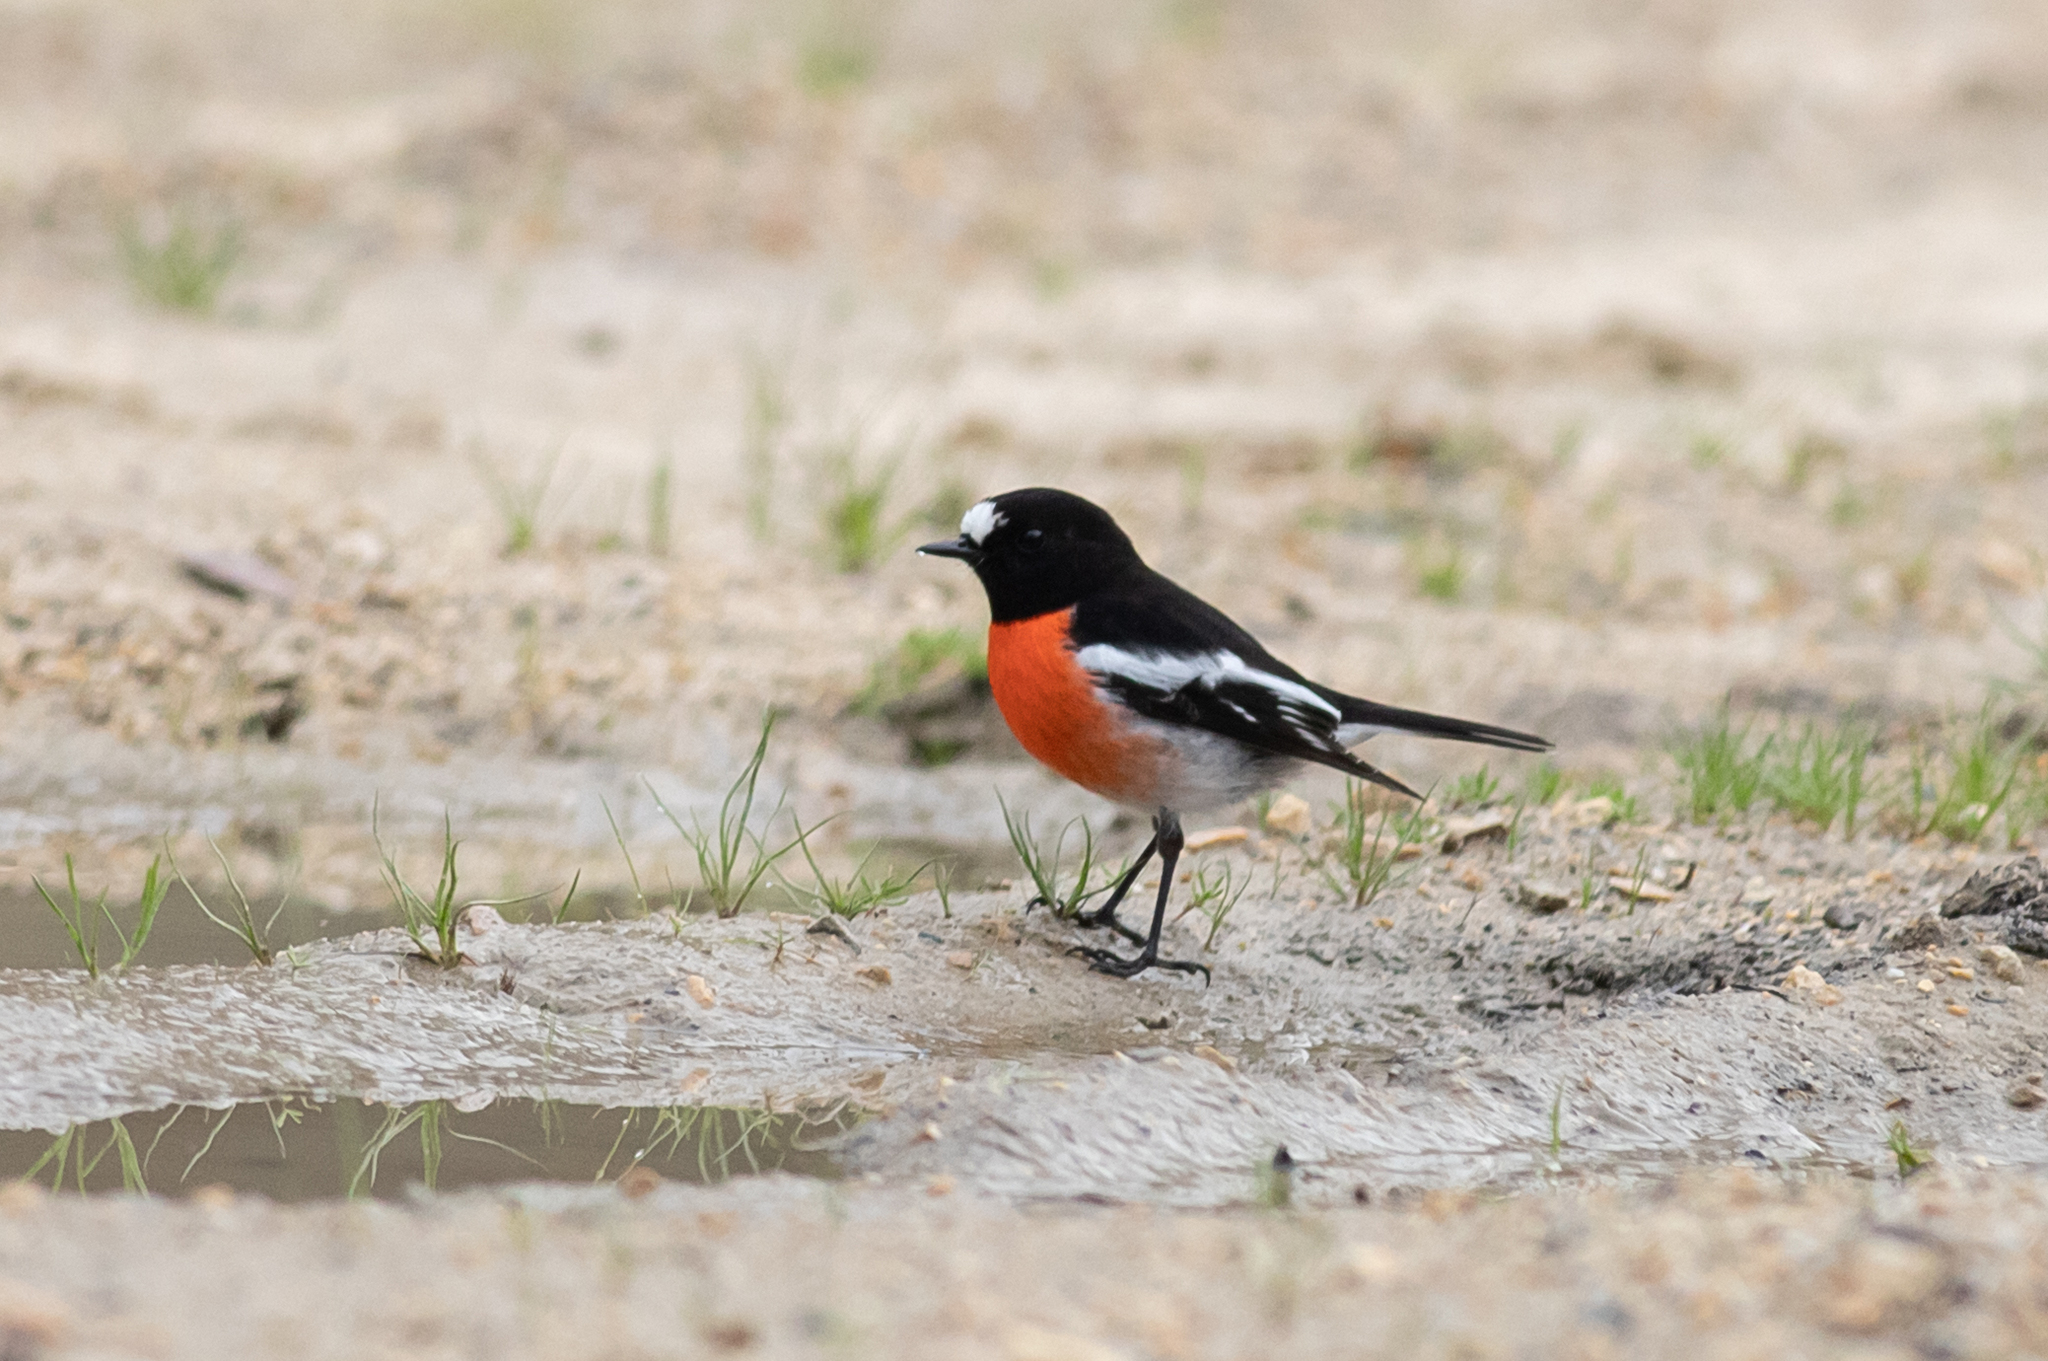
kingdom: Animalia
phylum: Chordata
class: Aves
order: Passeriformes
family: Petroicidae
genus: Petroica
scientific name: Petroica boodang
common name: Scarlet robin
